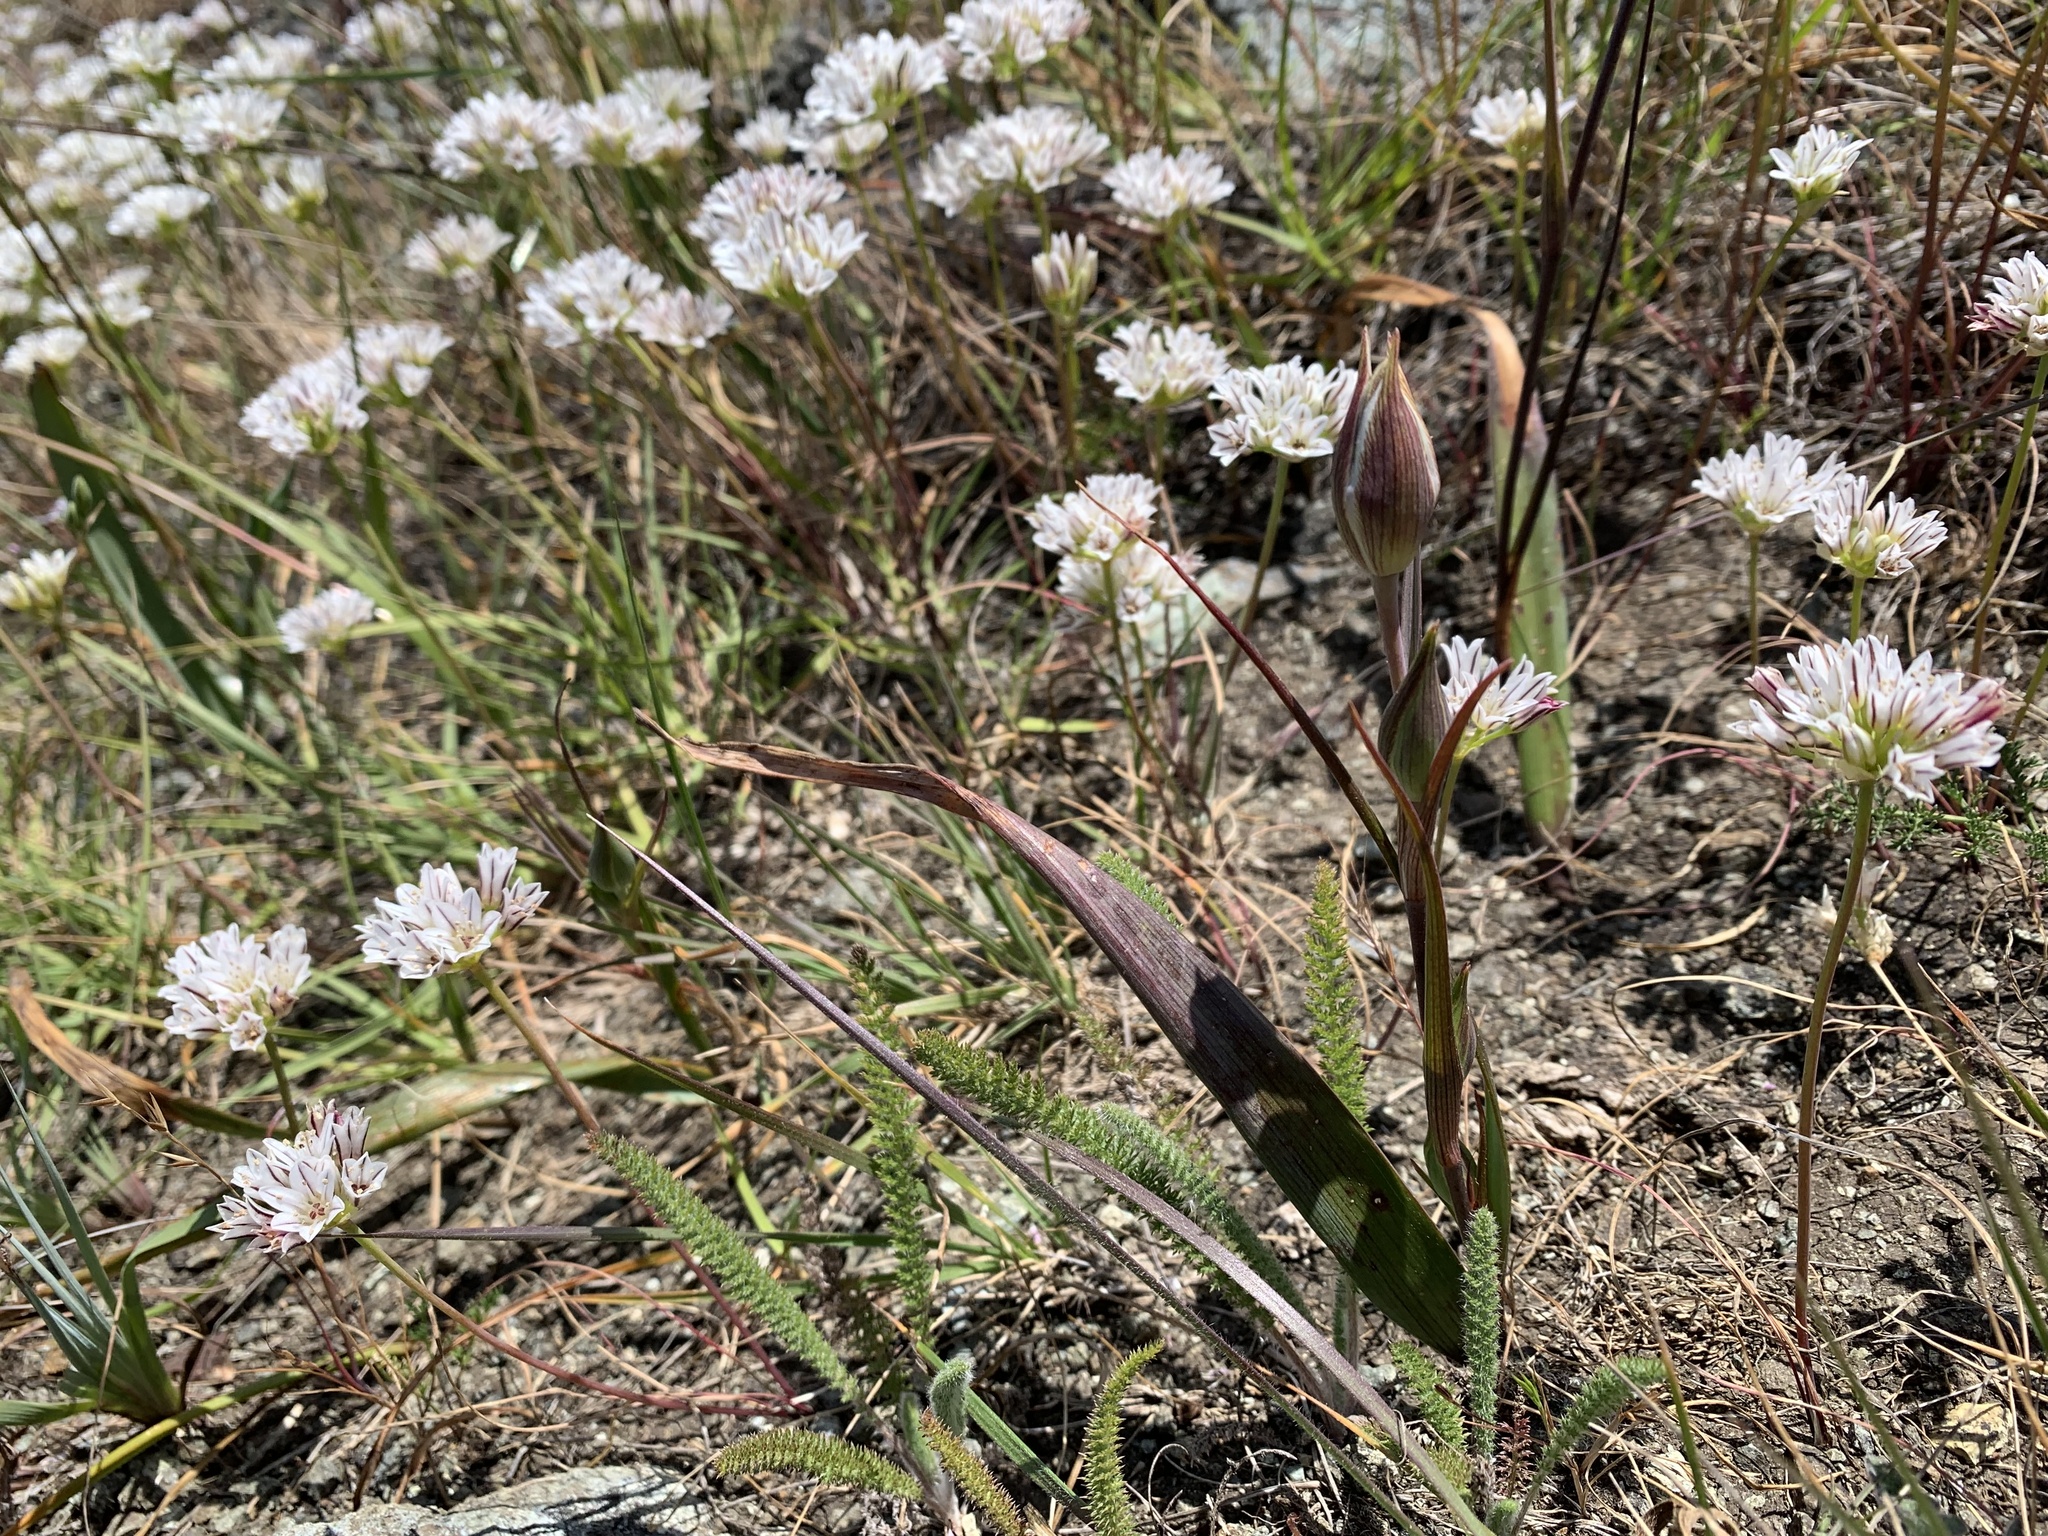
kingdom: Plantae
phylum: Tracheophyta
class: Liliopsida
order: Liliales
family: Liliaceae
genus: Calochortus
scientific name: Calochortus tiburonensis
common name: Tiburon mariposa-lily
